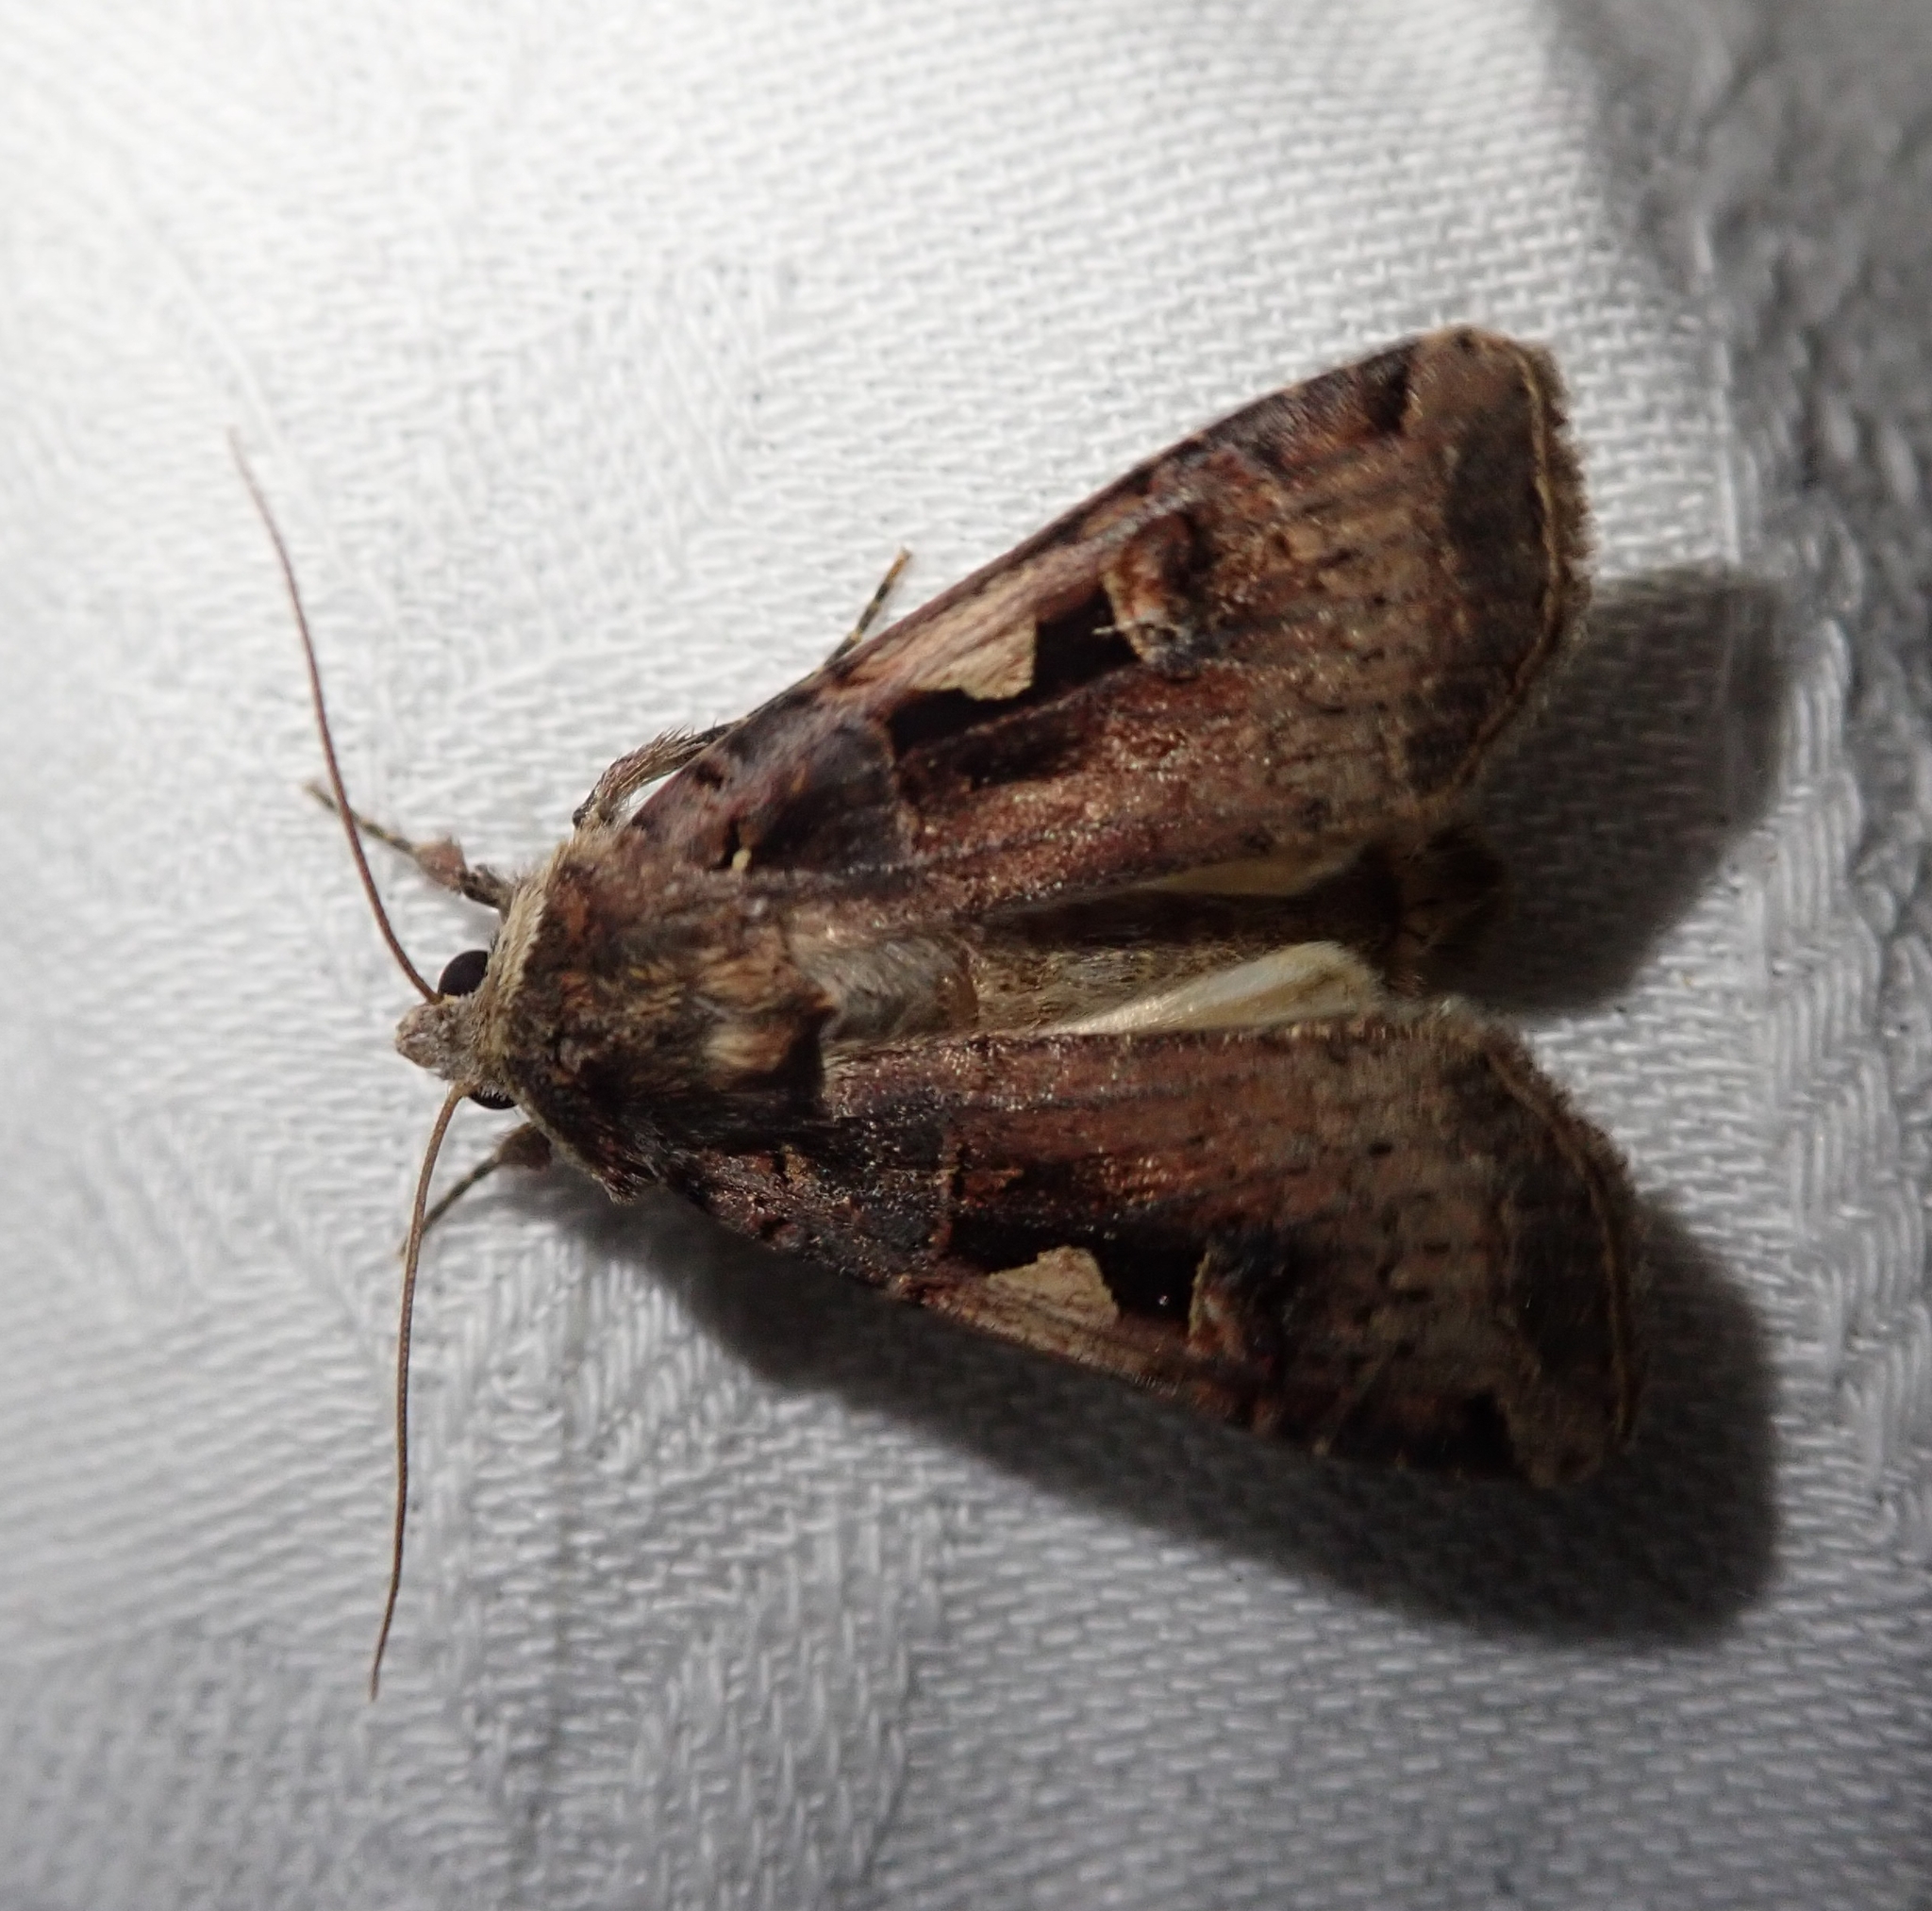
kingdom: Animalia
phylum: Arthropoda
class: Insecta
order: Lepidoptera
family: Noctuidae
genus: Xestia
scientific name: Xestia c-nigrum
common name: Setaceous hebrew character
